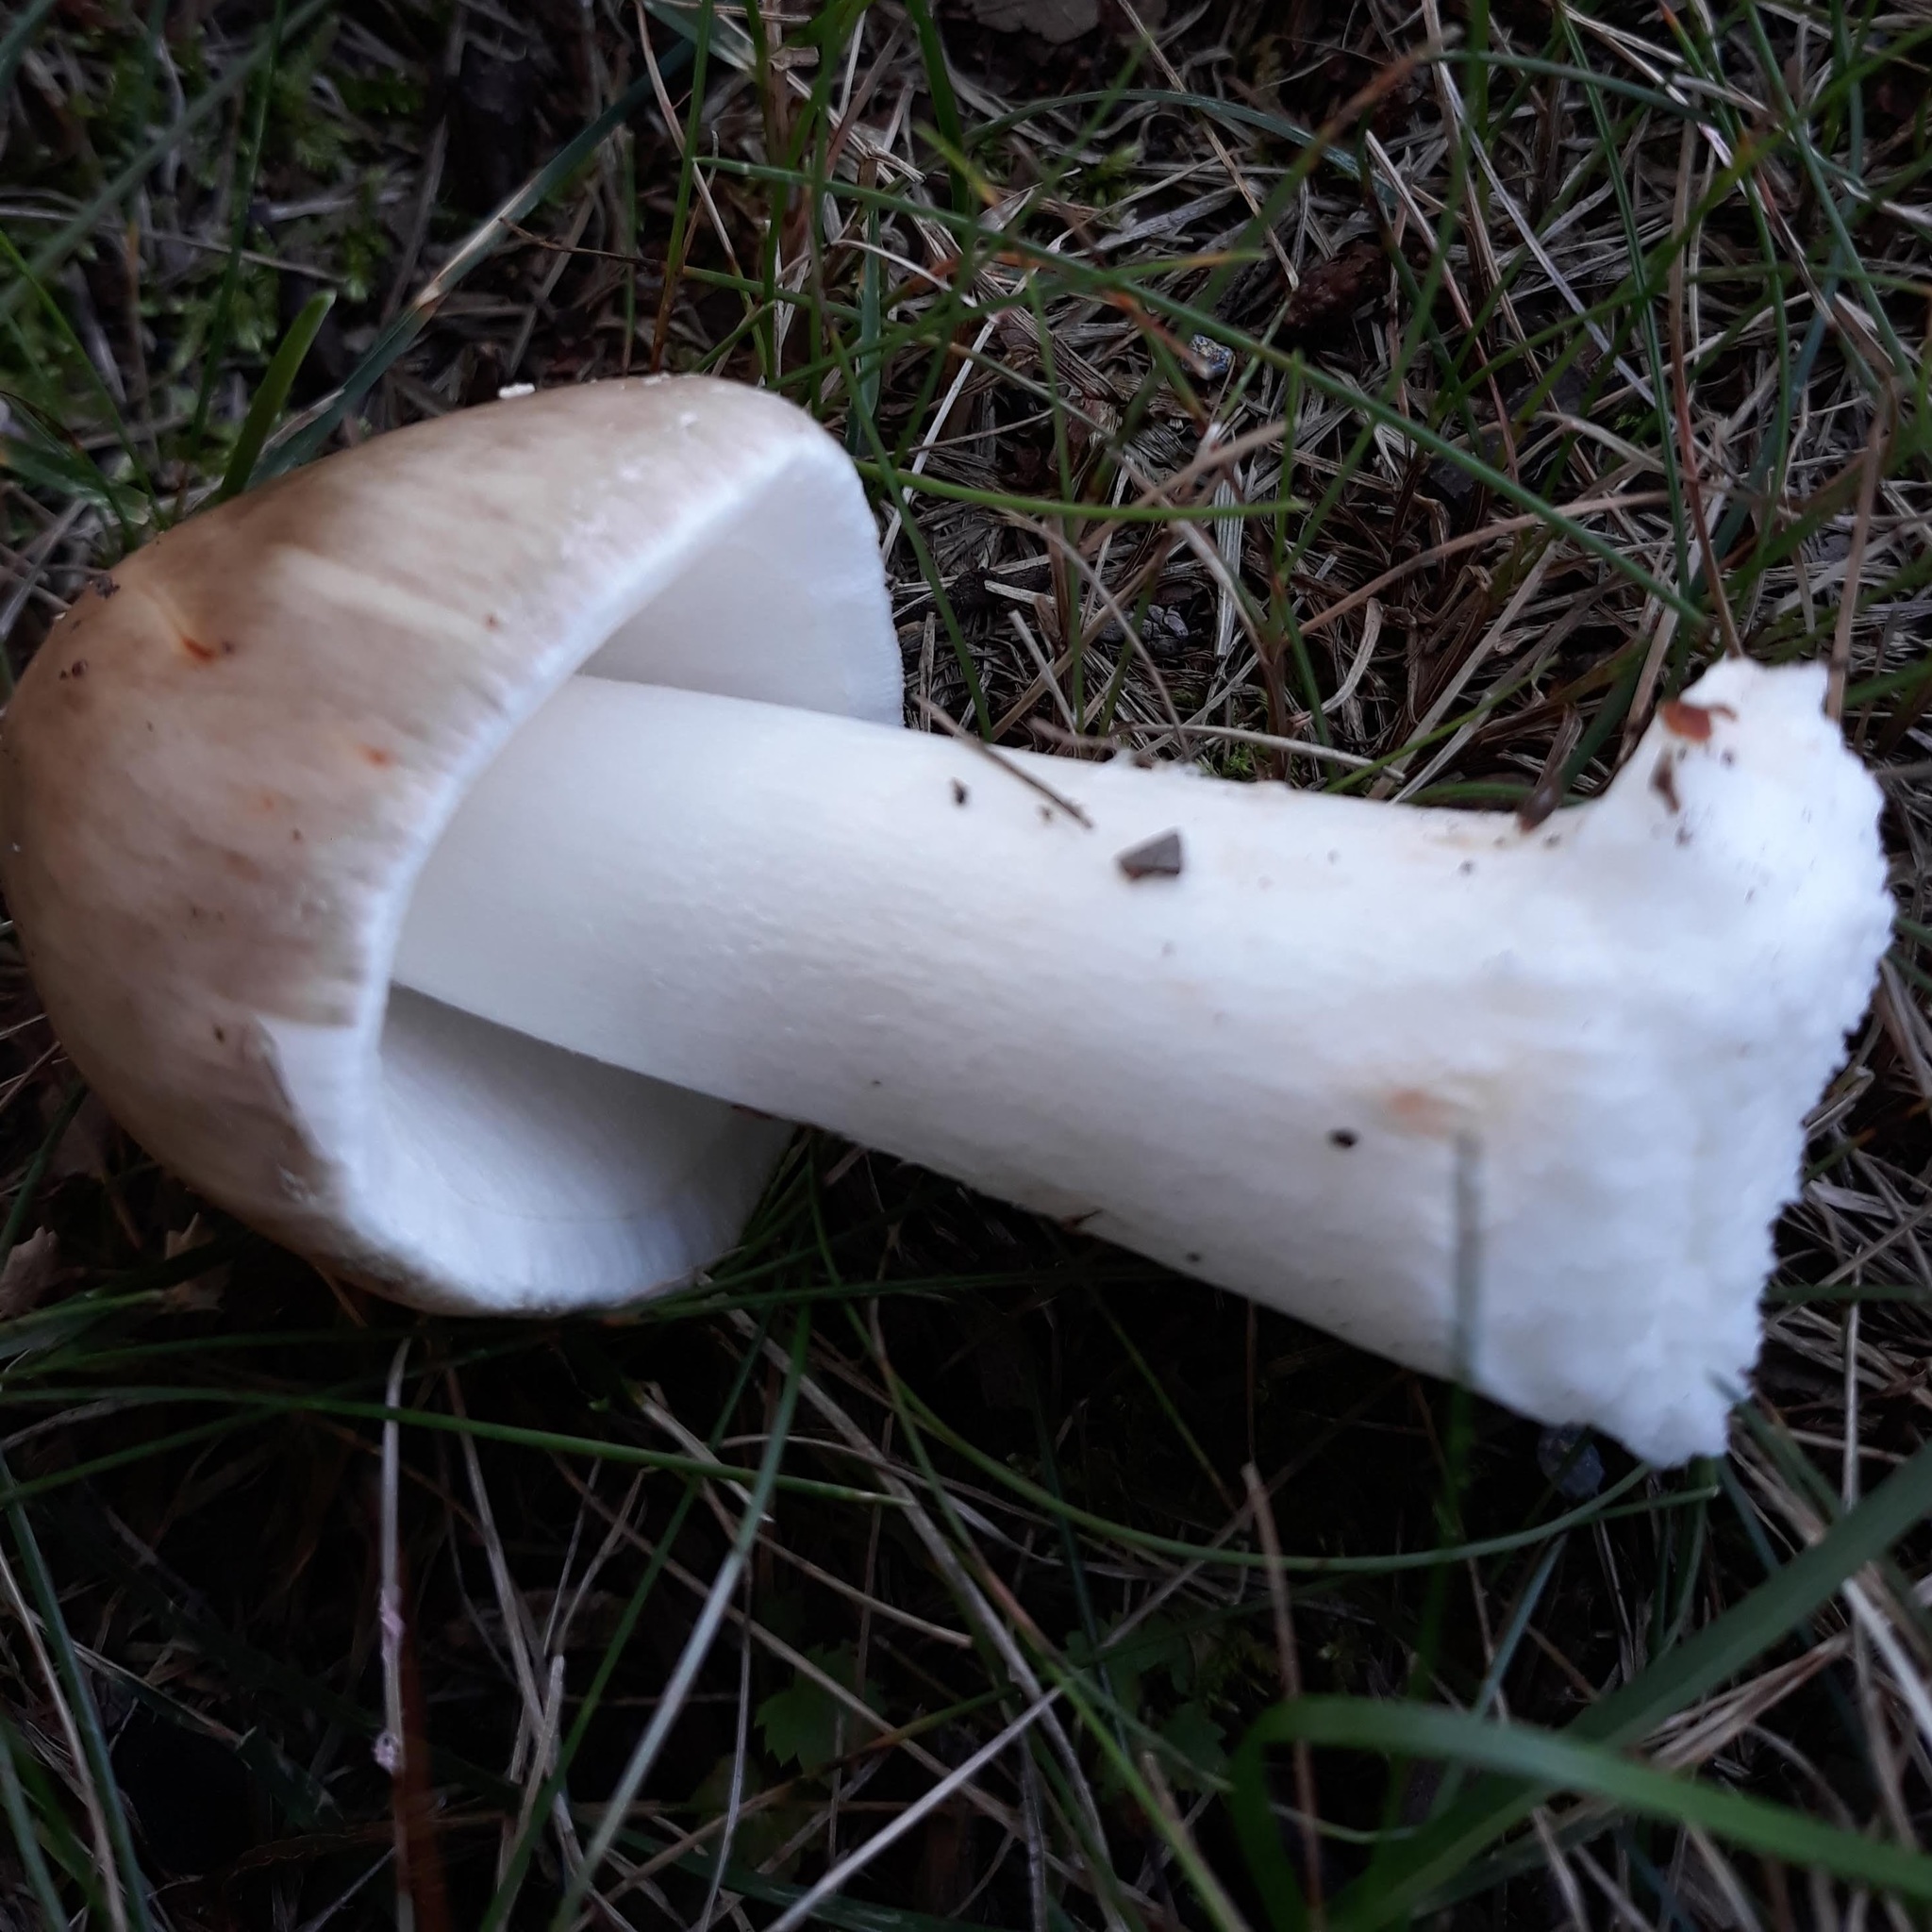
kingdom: Fungi
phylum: Basidiomycota
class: Agaricomycetes
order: Agaricales
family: Amanitaceae
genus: Amanita
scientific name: Amanita
